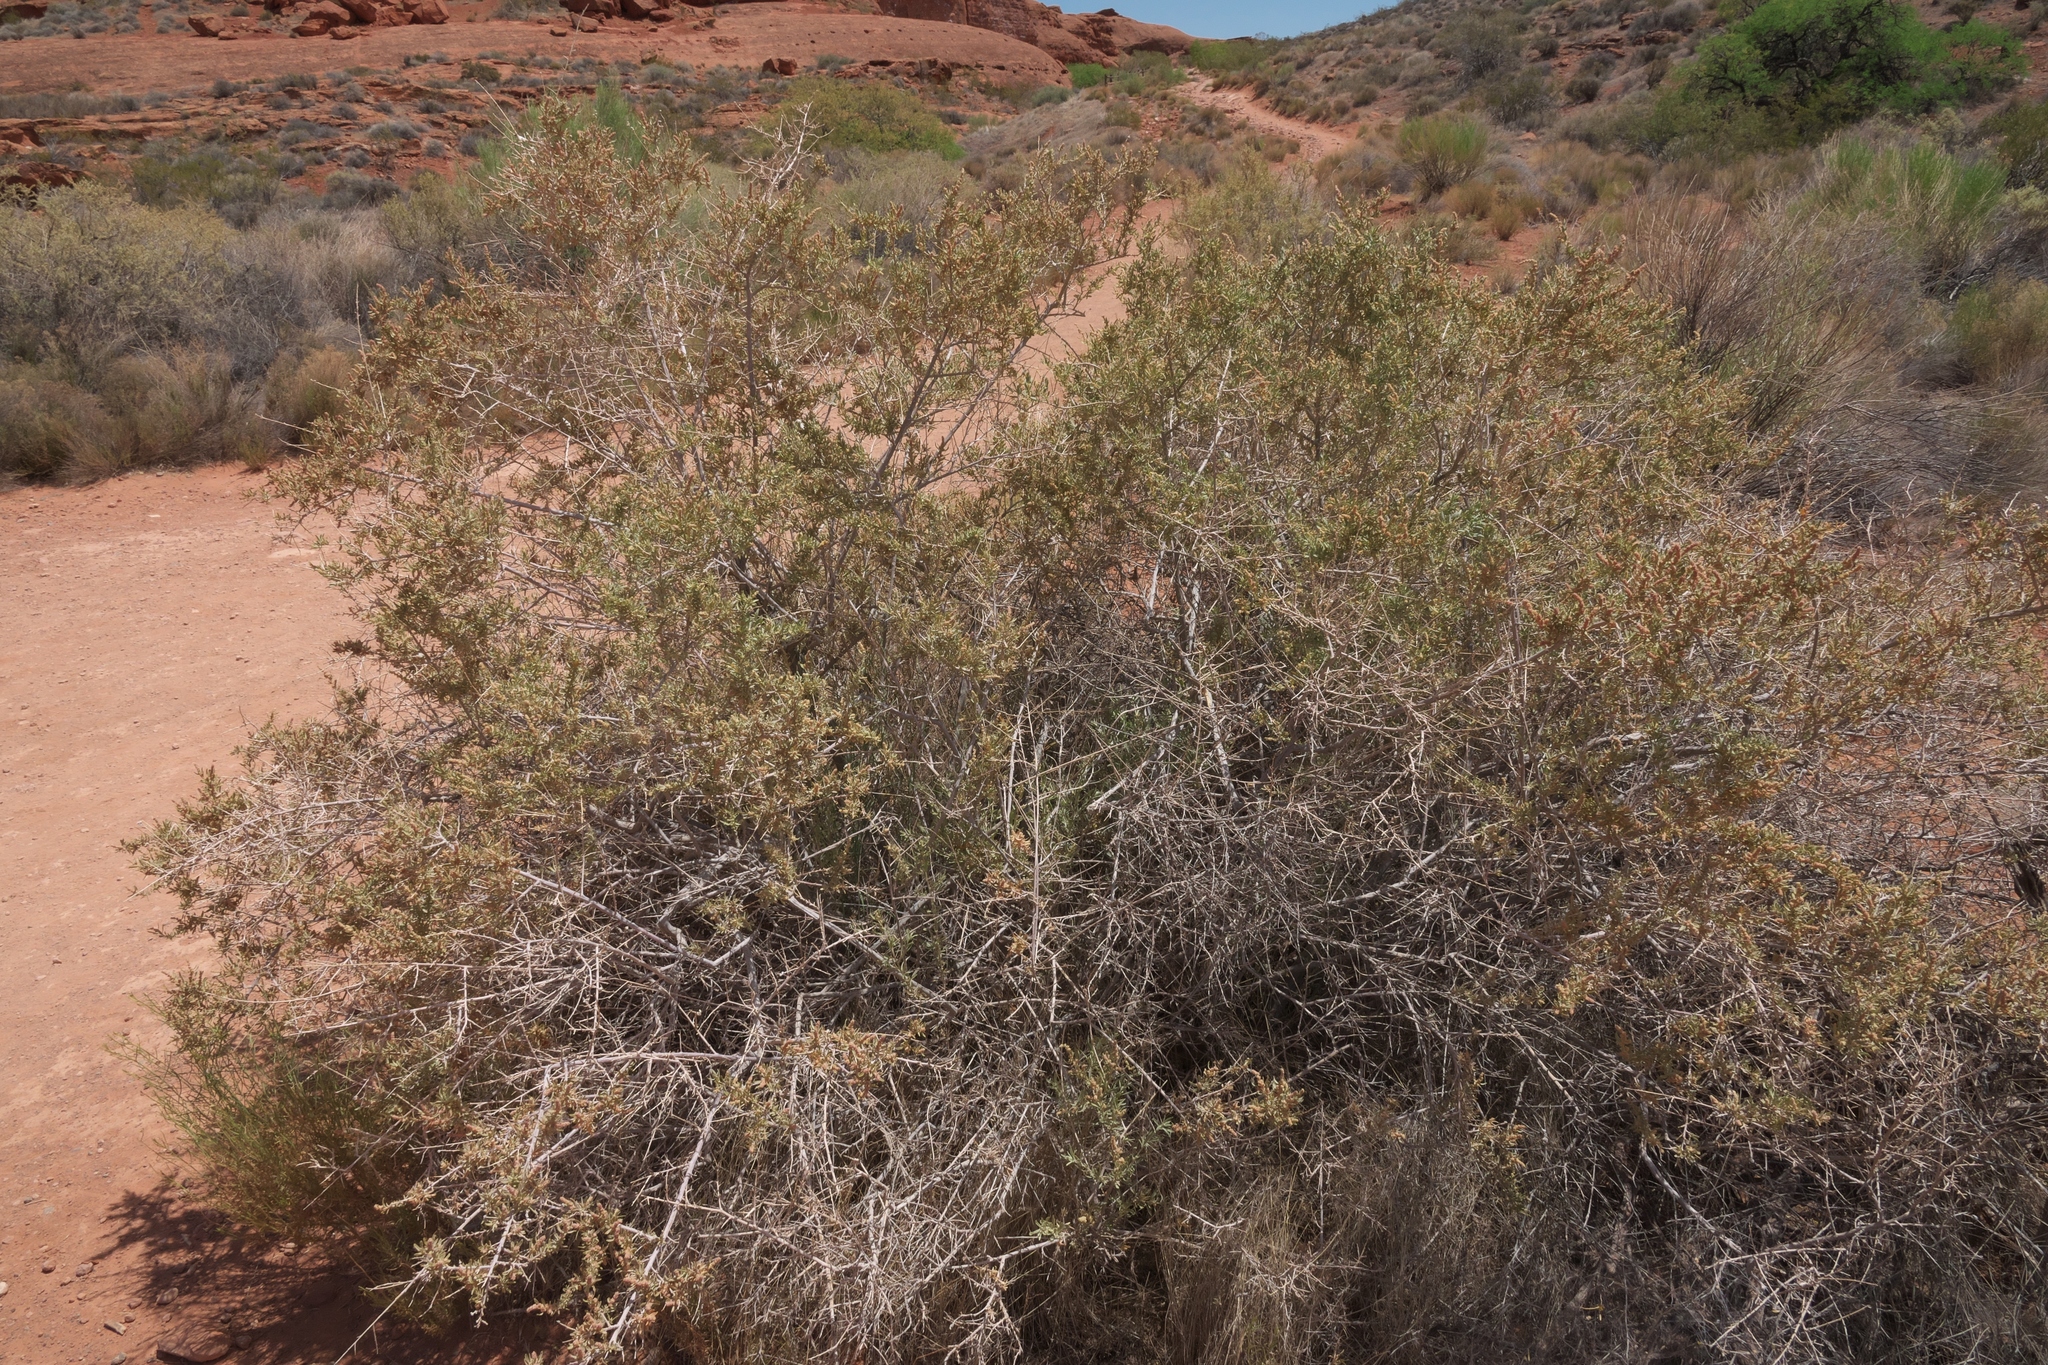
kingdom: Plantae
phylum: Tracheophyta
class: Magnoliopsida
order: Caryophyllales
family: Amaranthaceae
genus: Atriplex
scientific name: Atriplex canescens
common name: Four-wing saltbush
